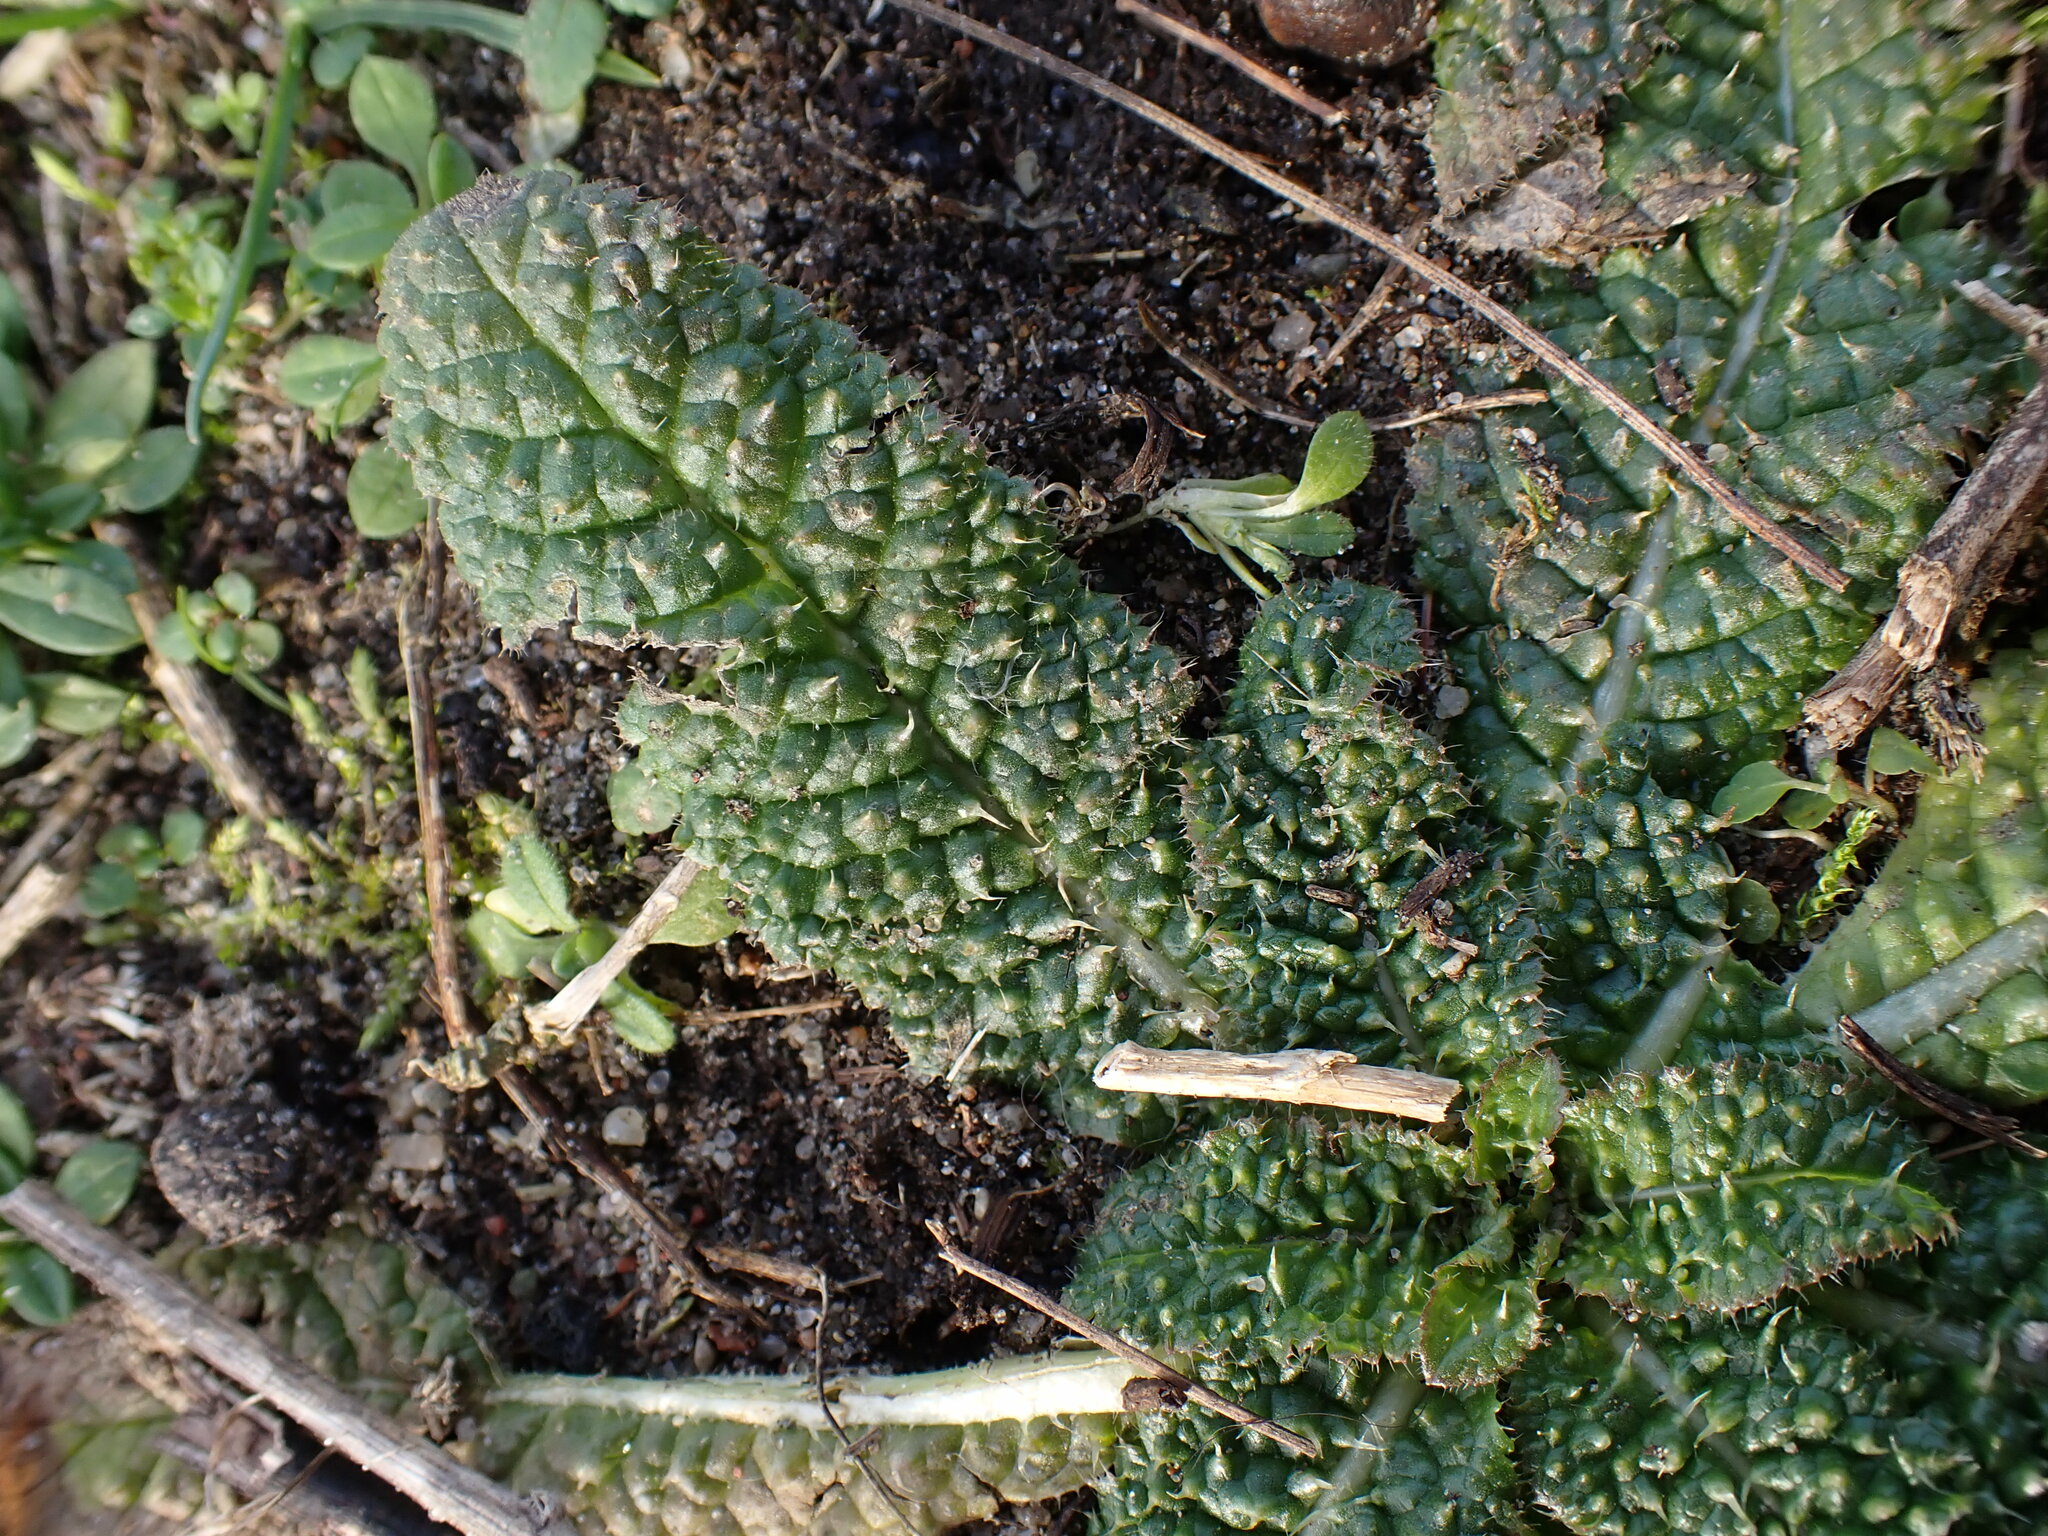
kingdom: Plantae
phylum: Tracheophyta
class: Magnoliopsida
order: Dipsacales
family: Caprifoliaceae
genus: Dipsacus
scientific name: Dipsacus fullonum
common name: Teasel
